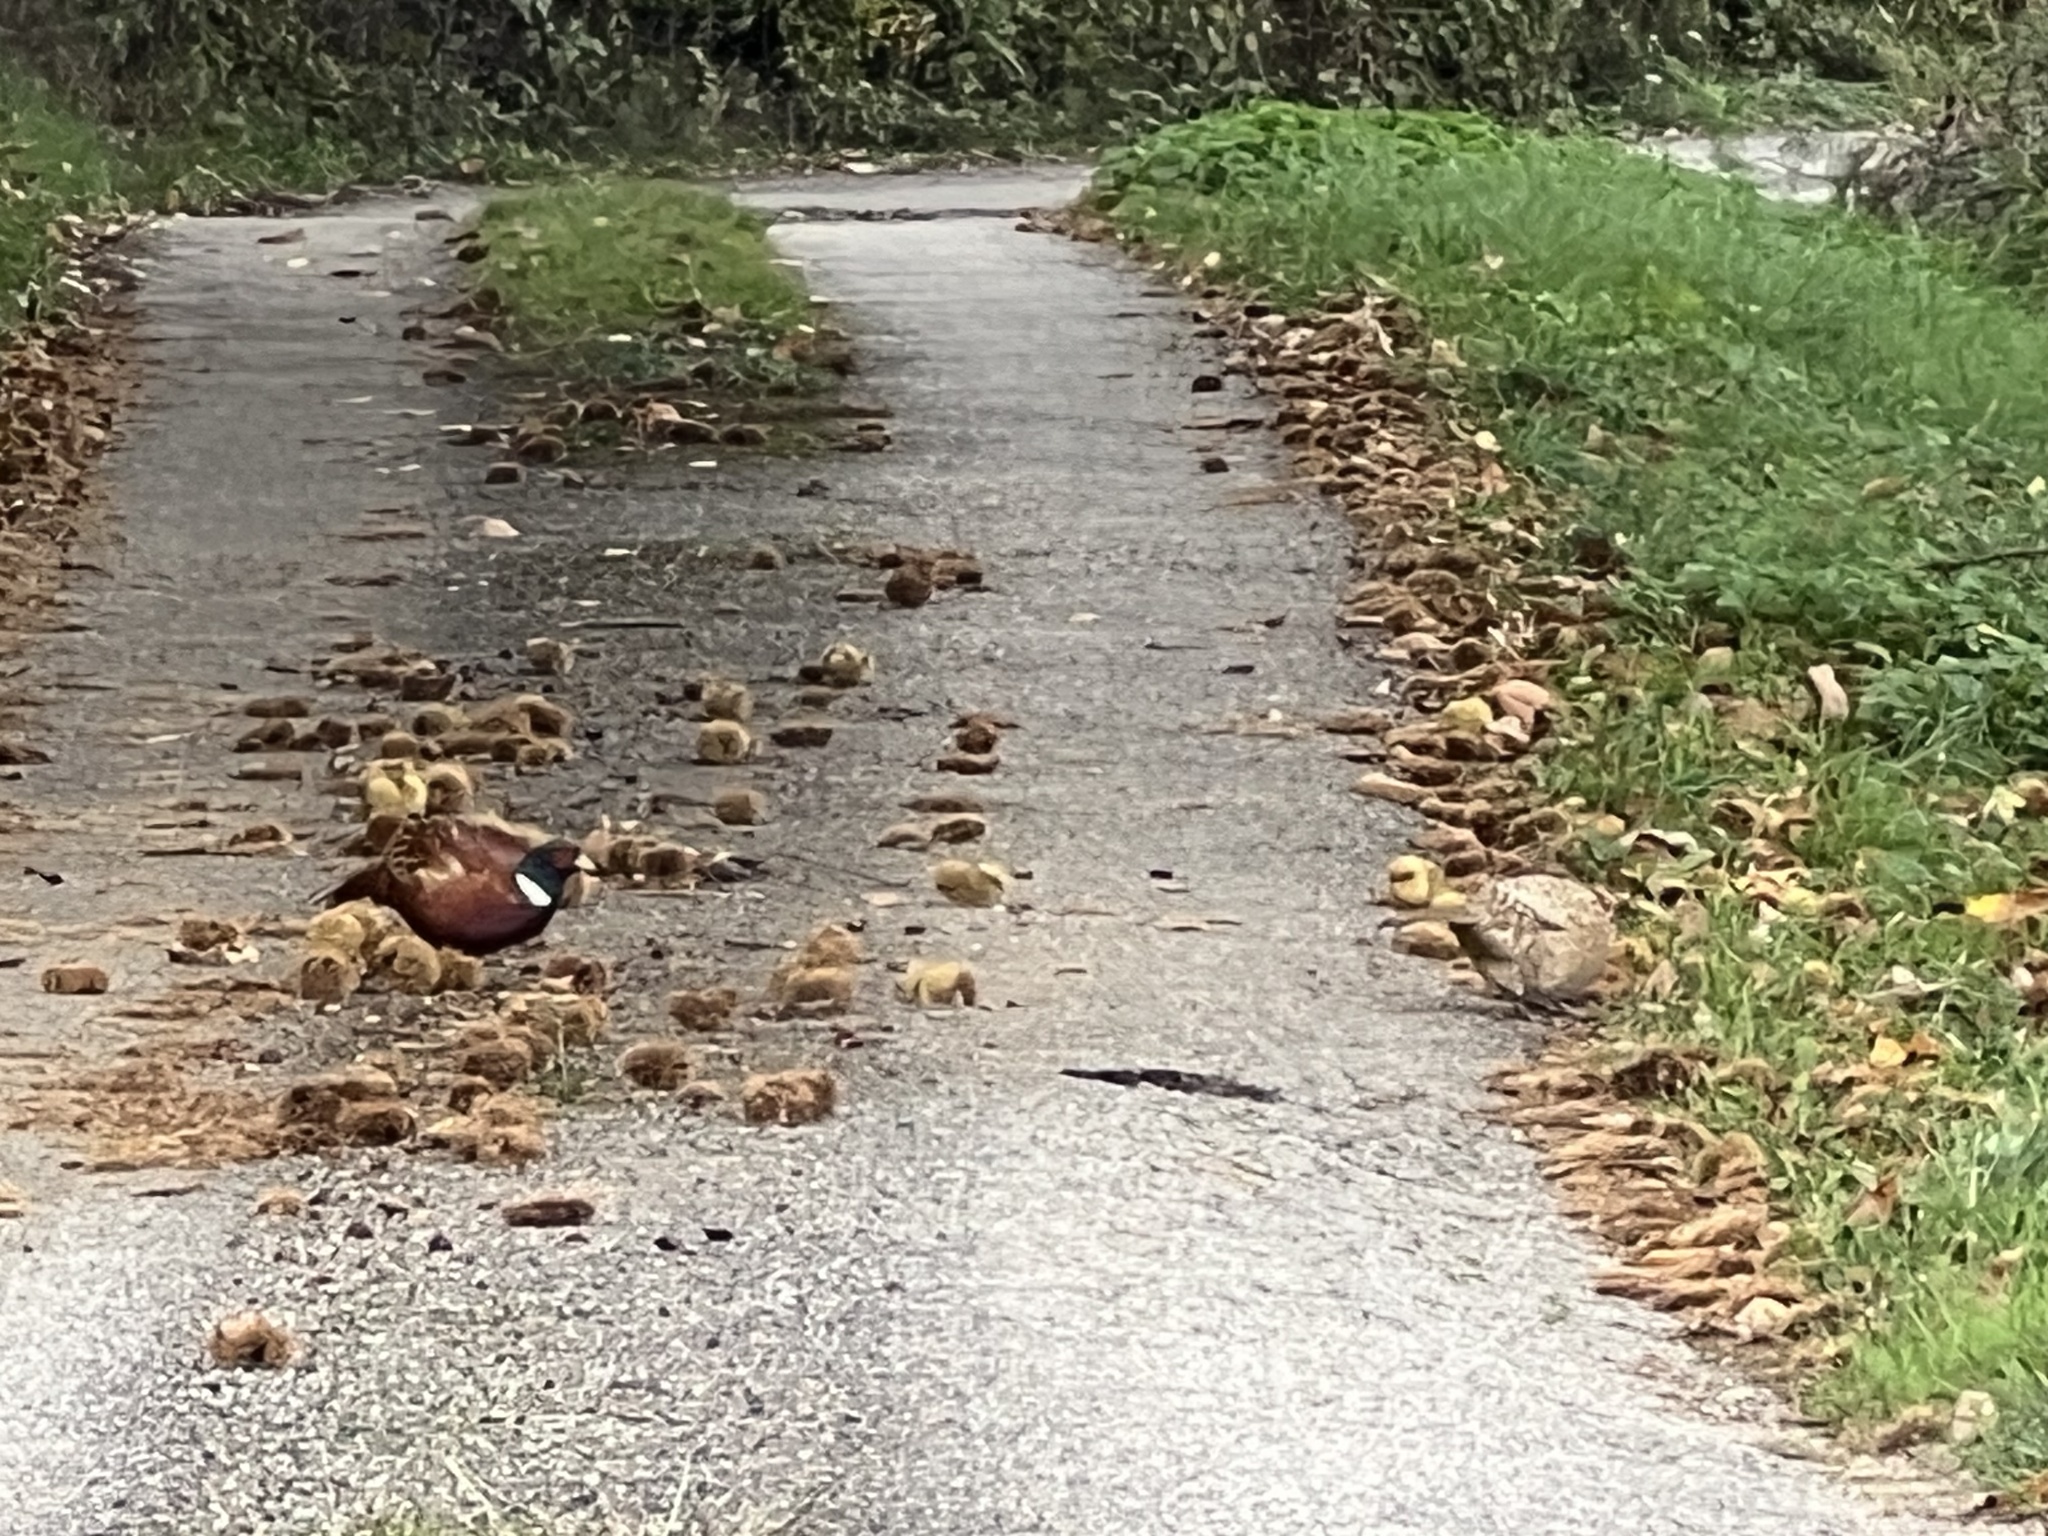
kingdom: Animalia
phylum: Chordata
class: Aves
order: Galliformes
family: Phasianidae
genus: Phasianus
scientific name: Phasianus colchicus
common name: Common pheasant
